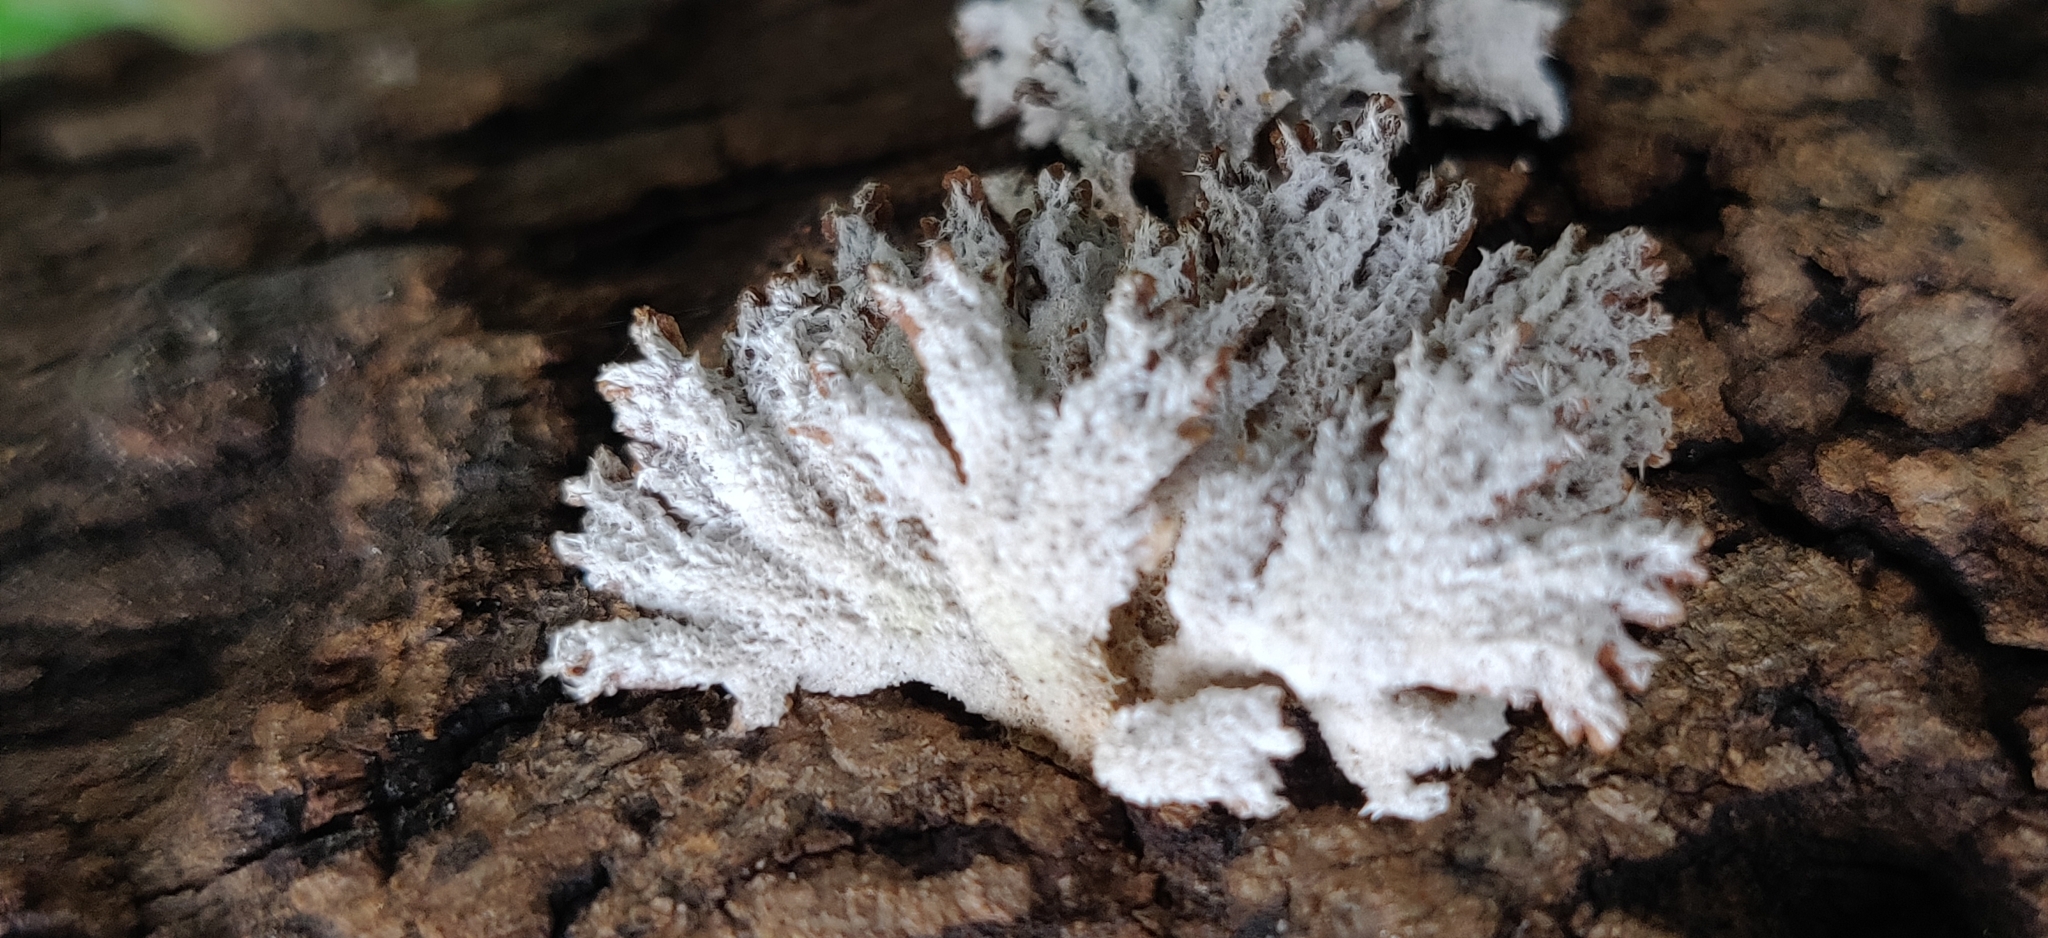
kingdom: Fungi
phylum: Basidiomycota
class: Agaricomycetes
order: Agaricales
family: Schizophyllaceae
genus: Schizophyllum
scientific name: Schizophyllum commune
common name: Common porecrust
